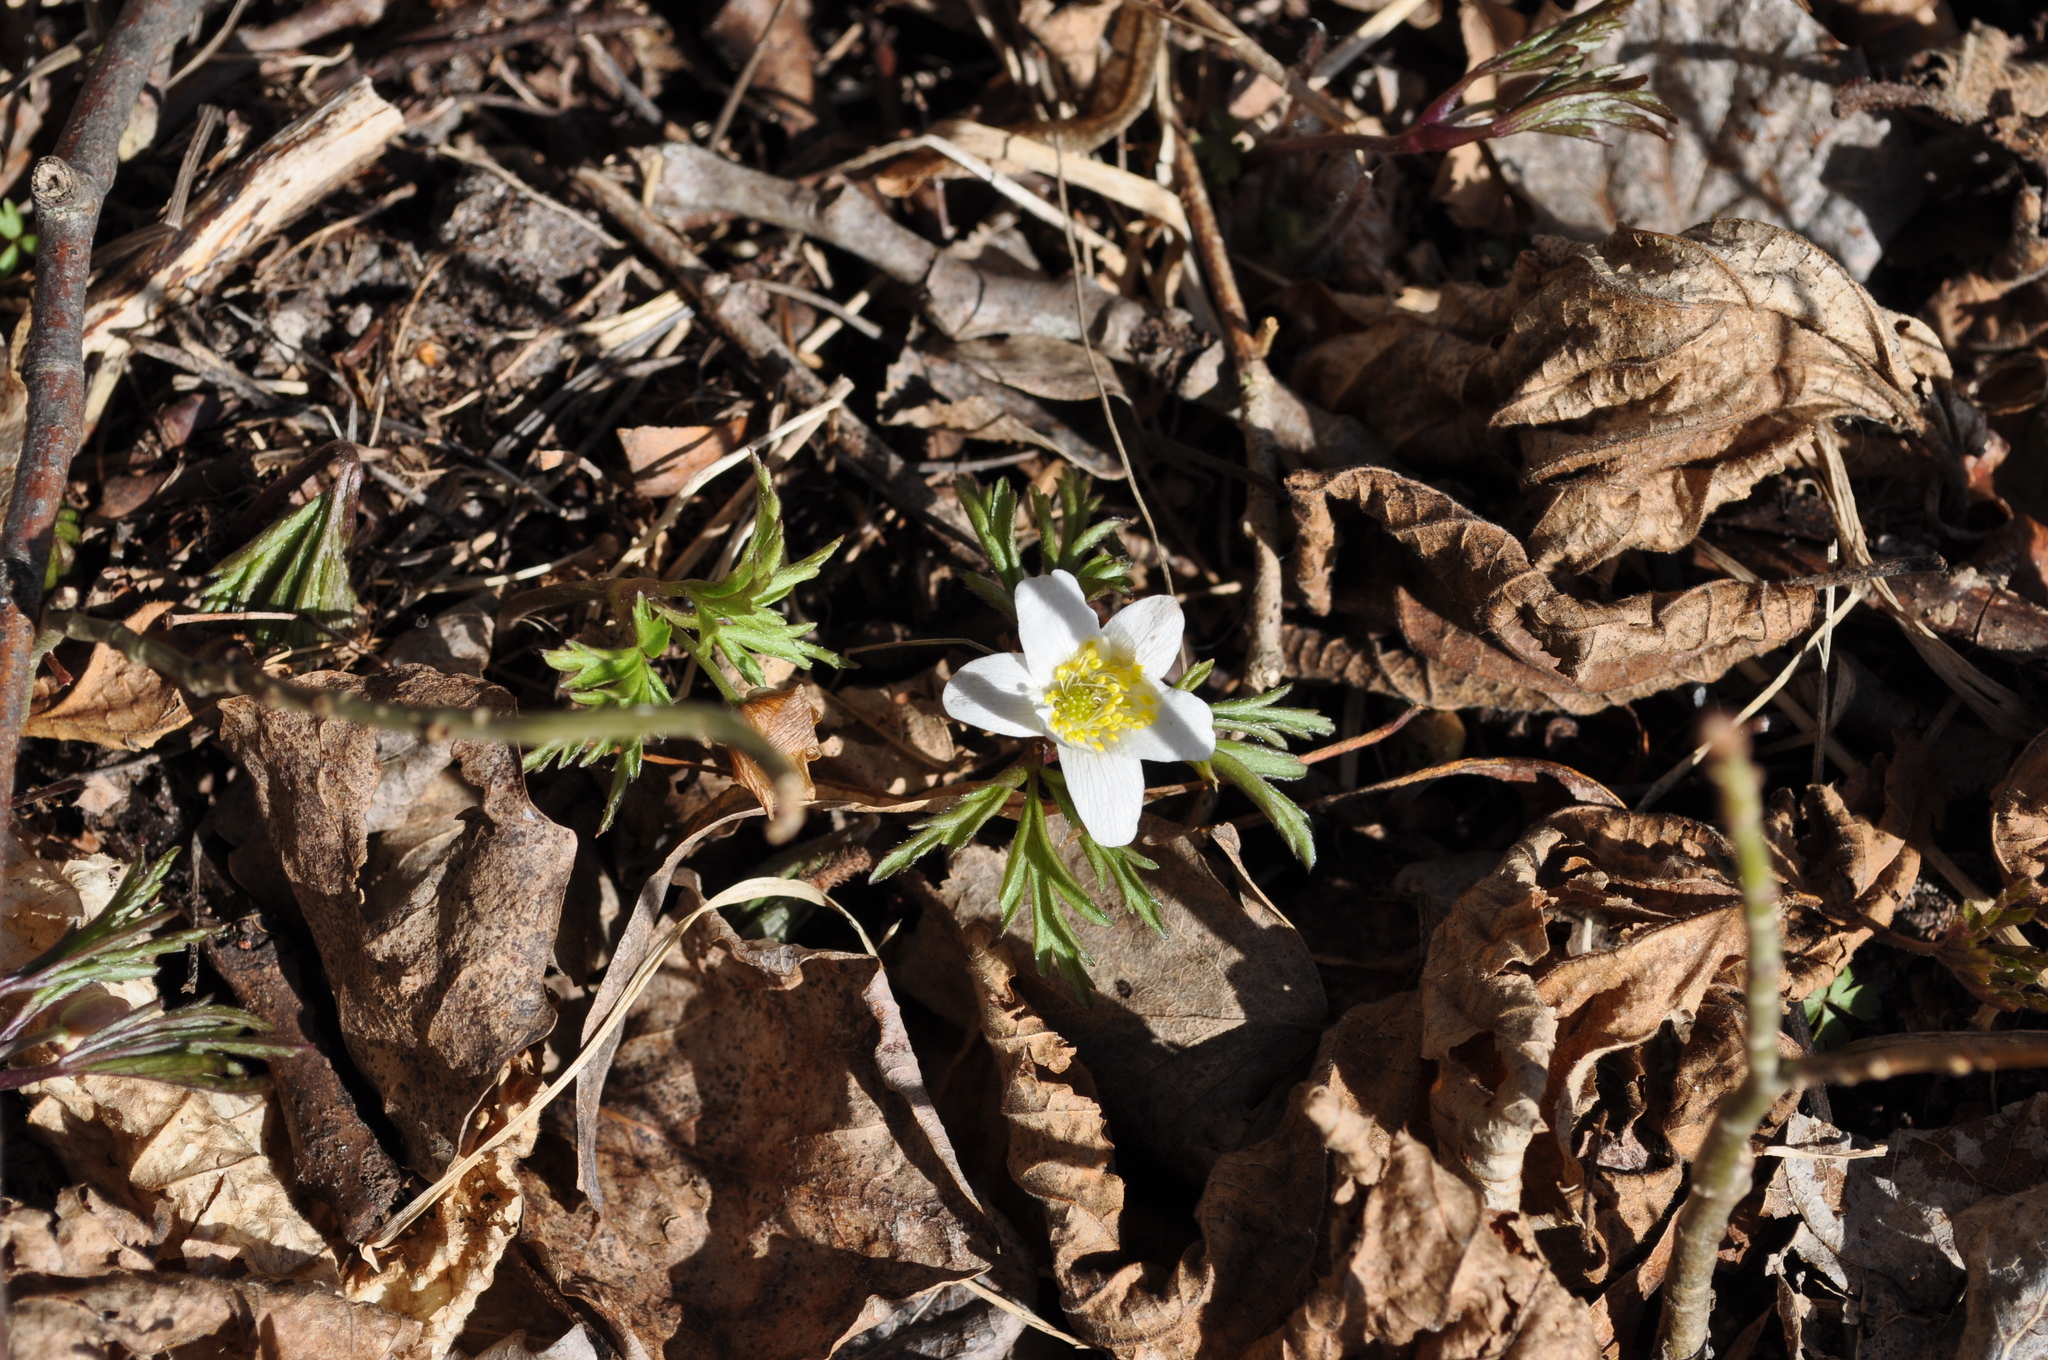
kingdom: Plantae
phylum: Tracheophyta
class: Magnoliopsida
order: Ranunculales
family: Ranunculaceae
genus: Anemone
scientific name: Anemone nemorosa
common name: Wood anemone
